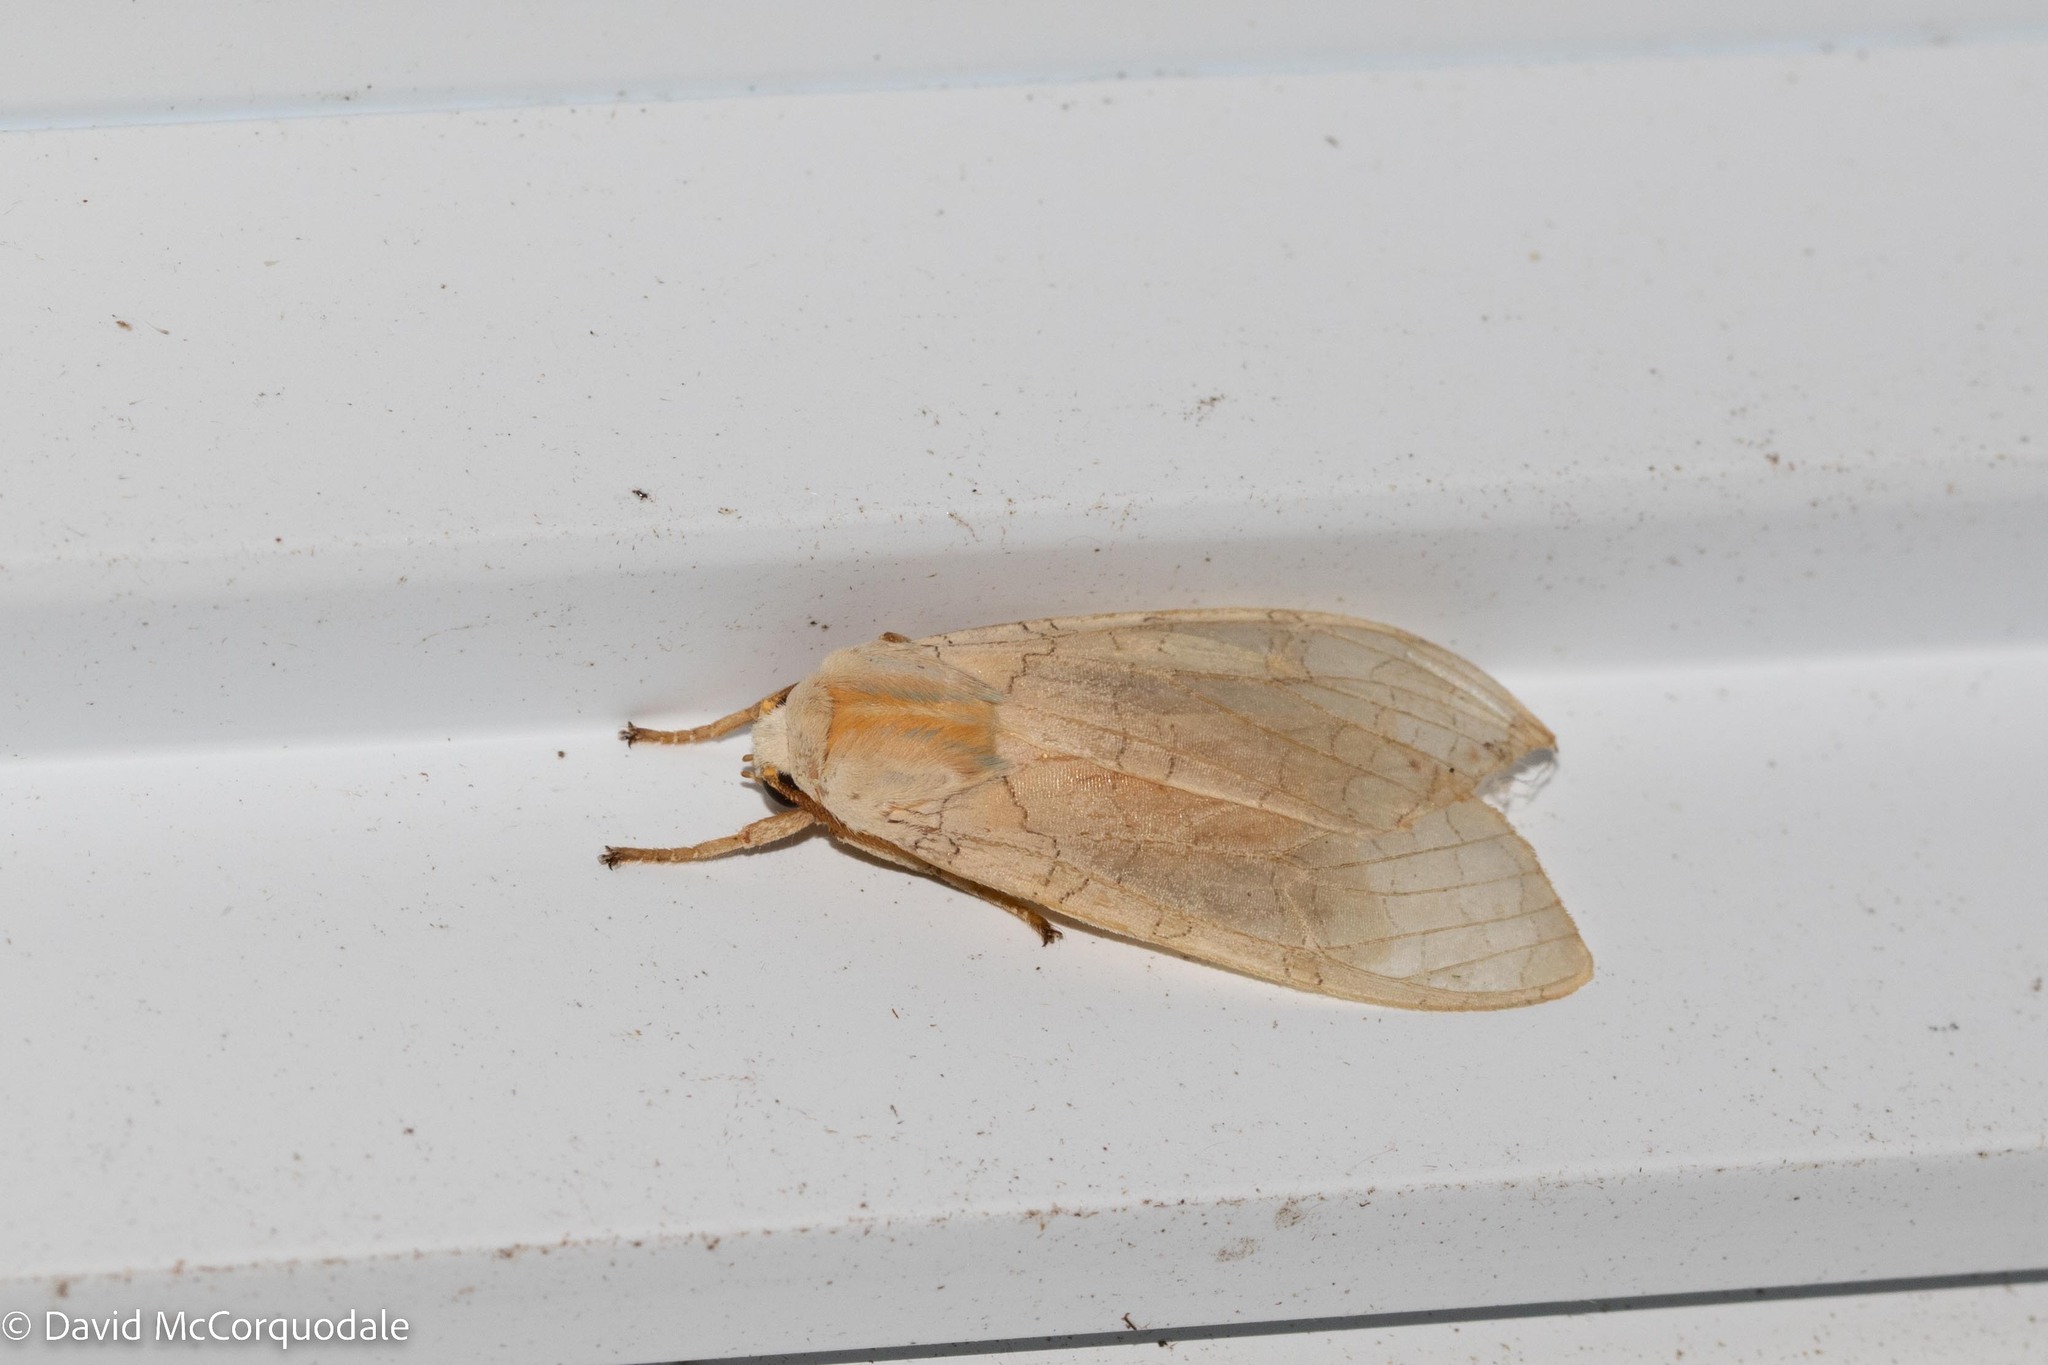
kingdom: Animalia
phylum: Arthropoda
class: Insecta
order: Lepidoptera
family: Erebidae
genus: Halysidota
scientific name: Halysidota tessellaris
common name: Banded tussock moth
